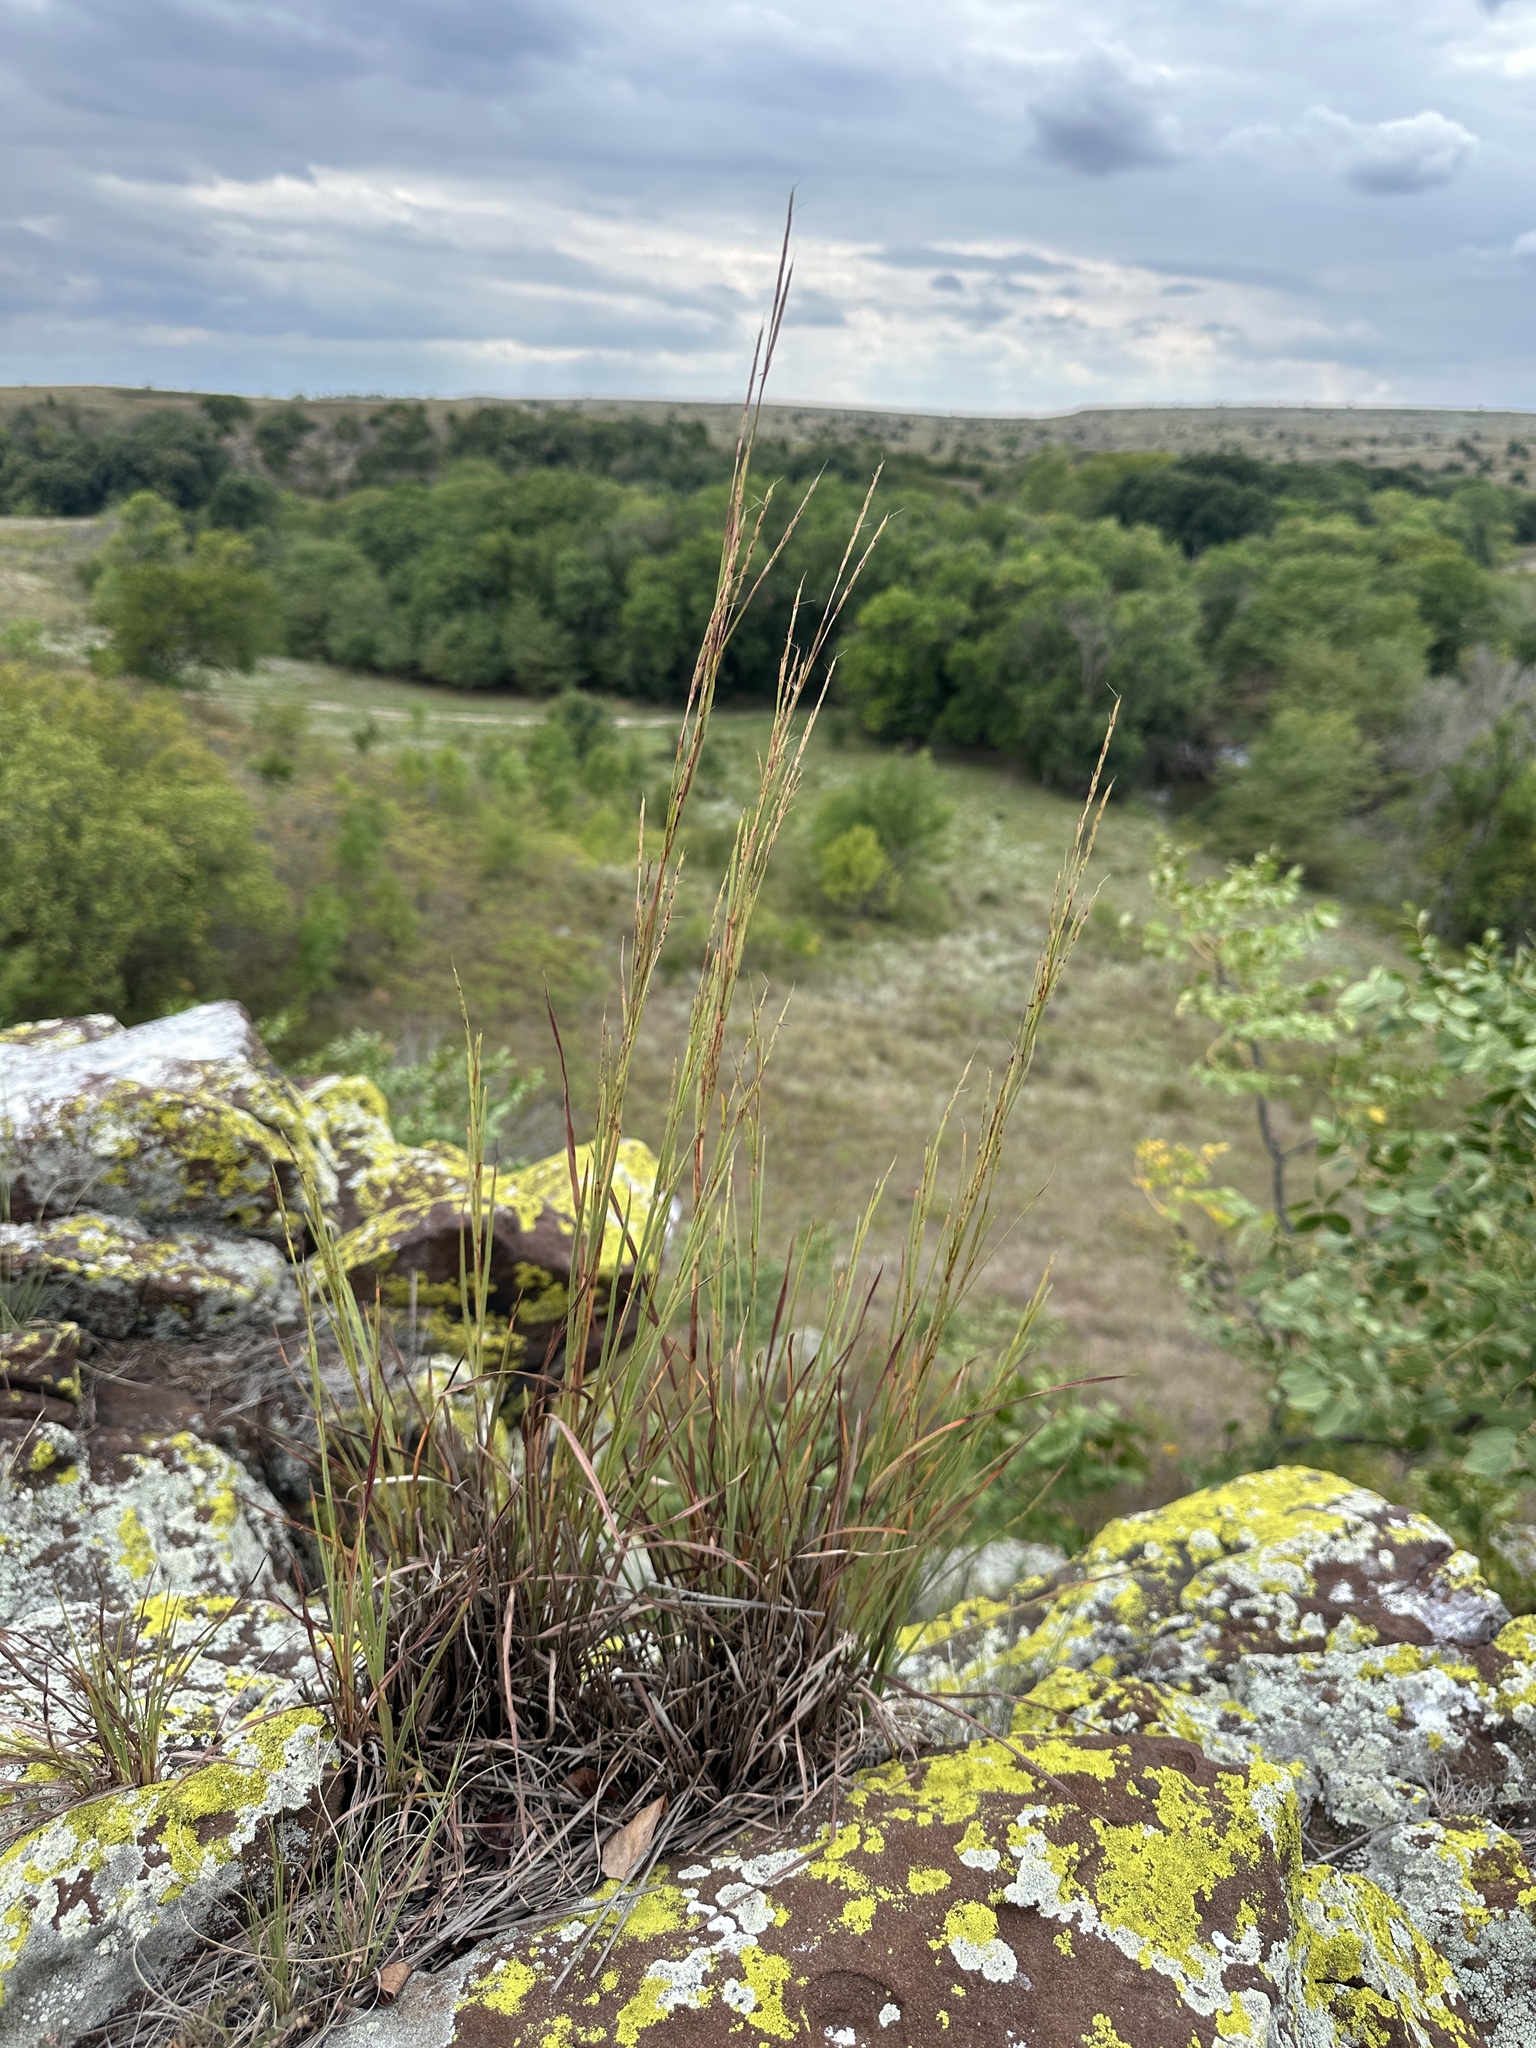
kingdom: Plantae
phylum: Tracheophyta
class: Liliopsida
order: Poales
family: Poaceae
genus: Andropogon
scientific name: Andropogon gerardi
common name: Big bluestem
